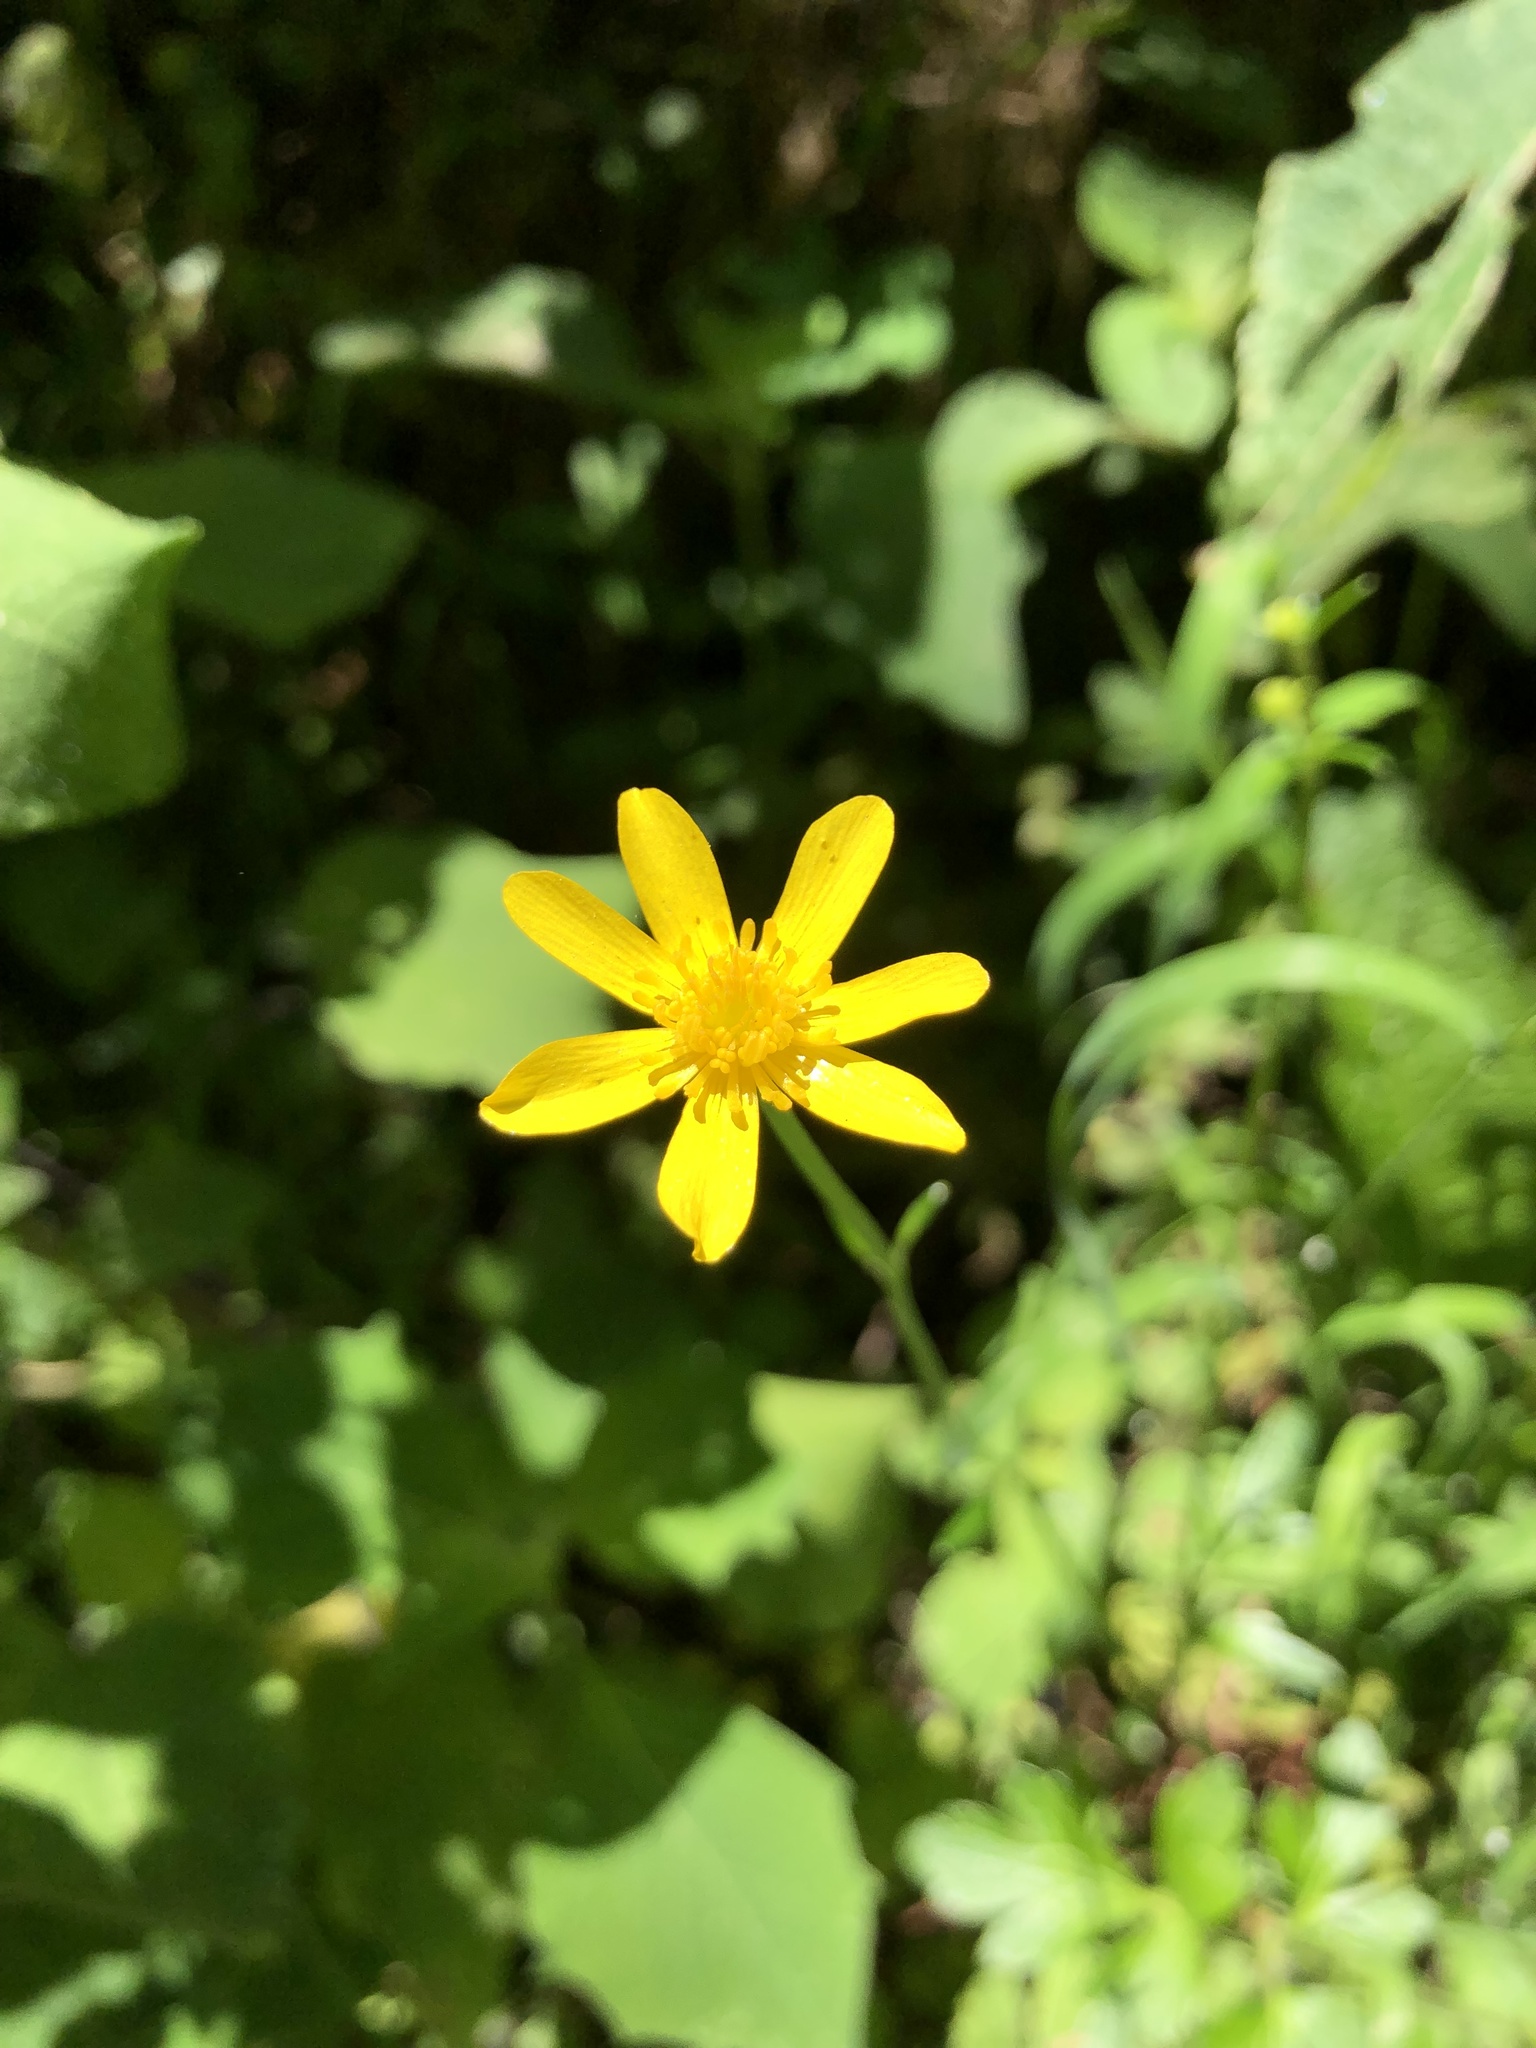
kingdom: Plantae
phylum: Tracheophyta
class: Magnoliopsida
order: Ranunculales
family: Ranunculaceae
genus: Ranunculus
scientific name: Ranunculus petiolaris
